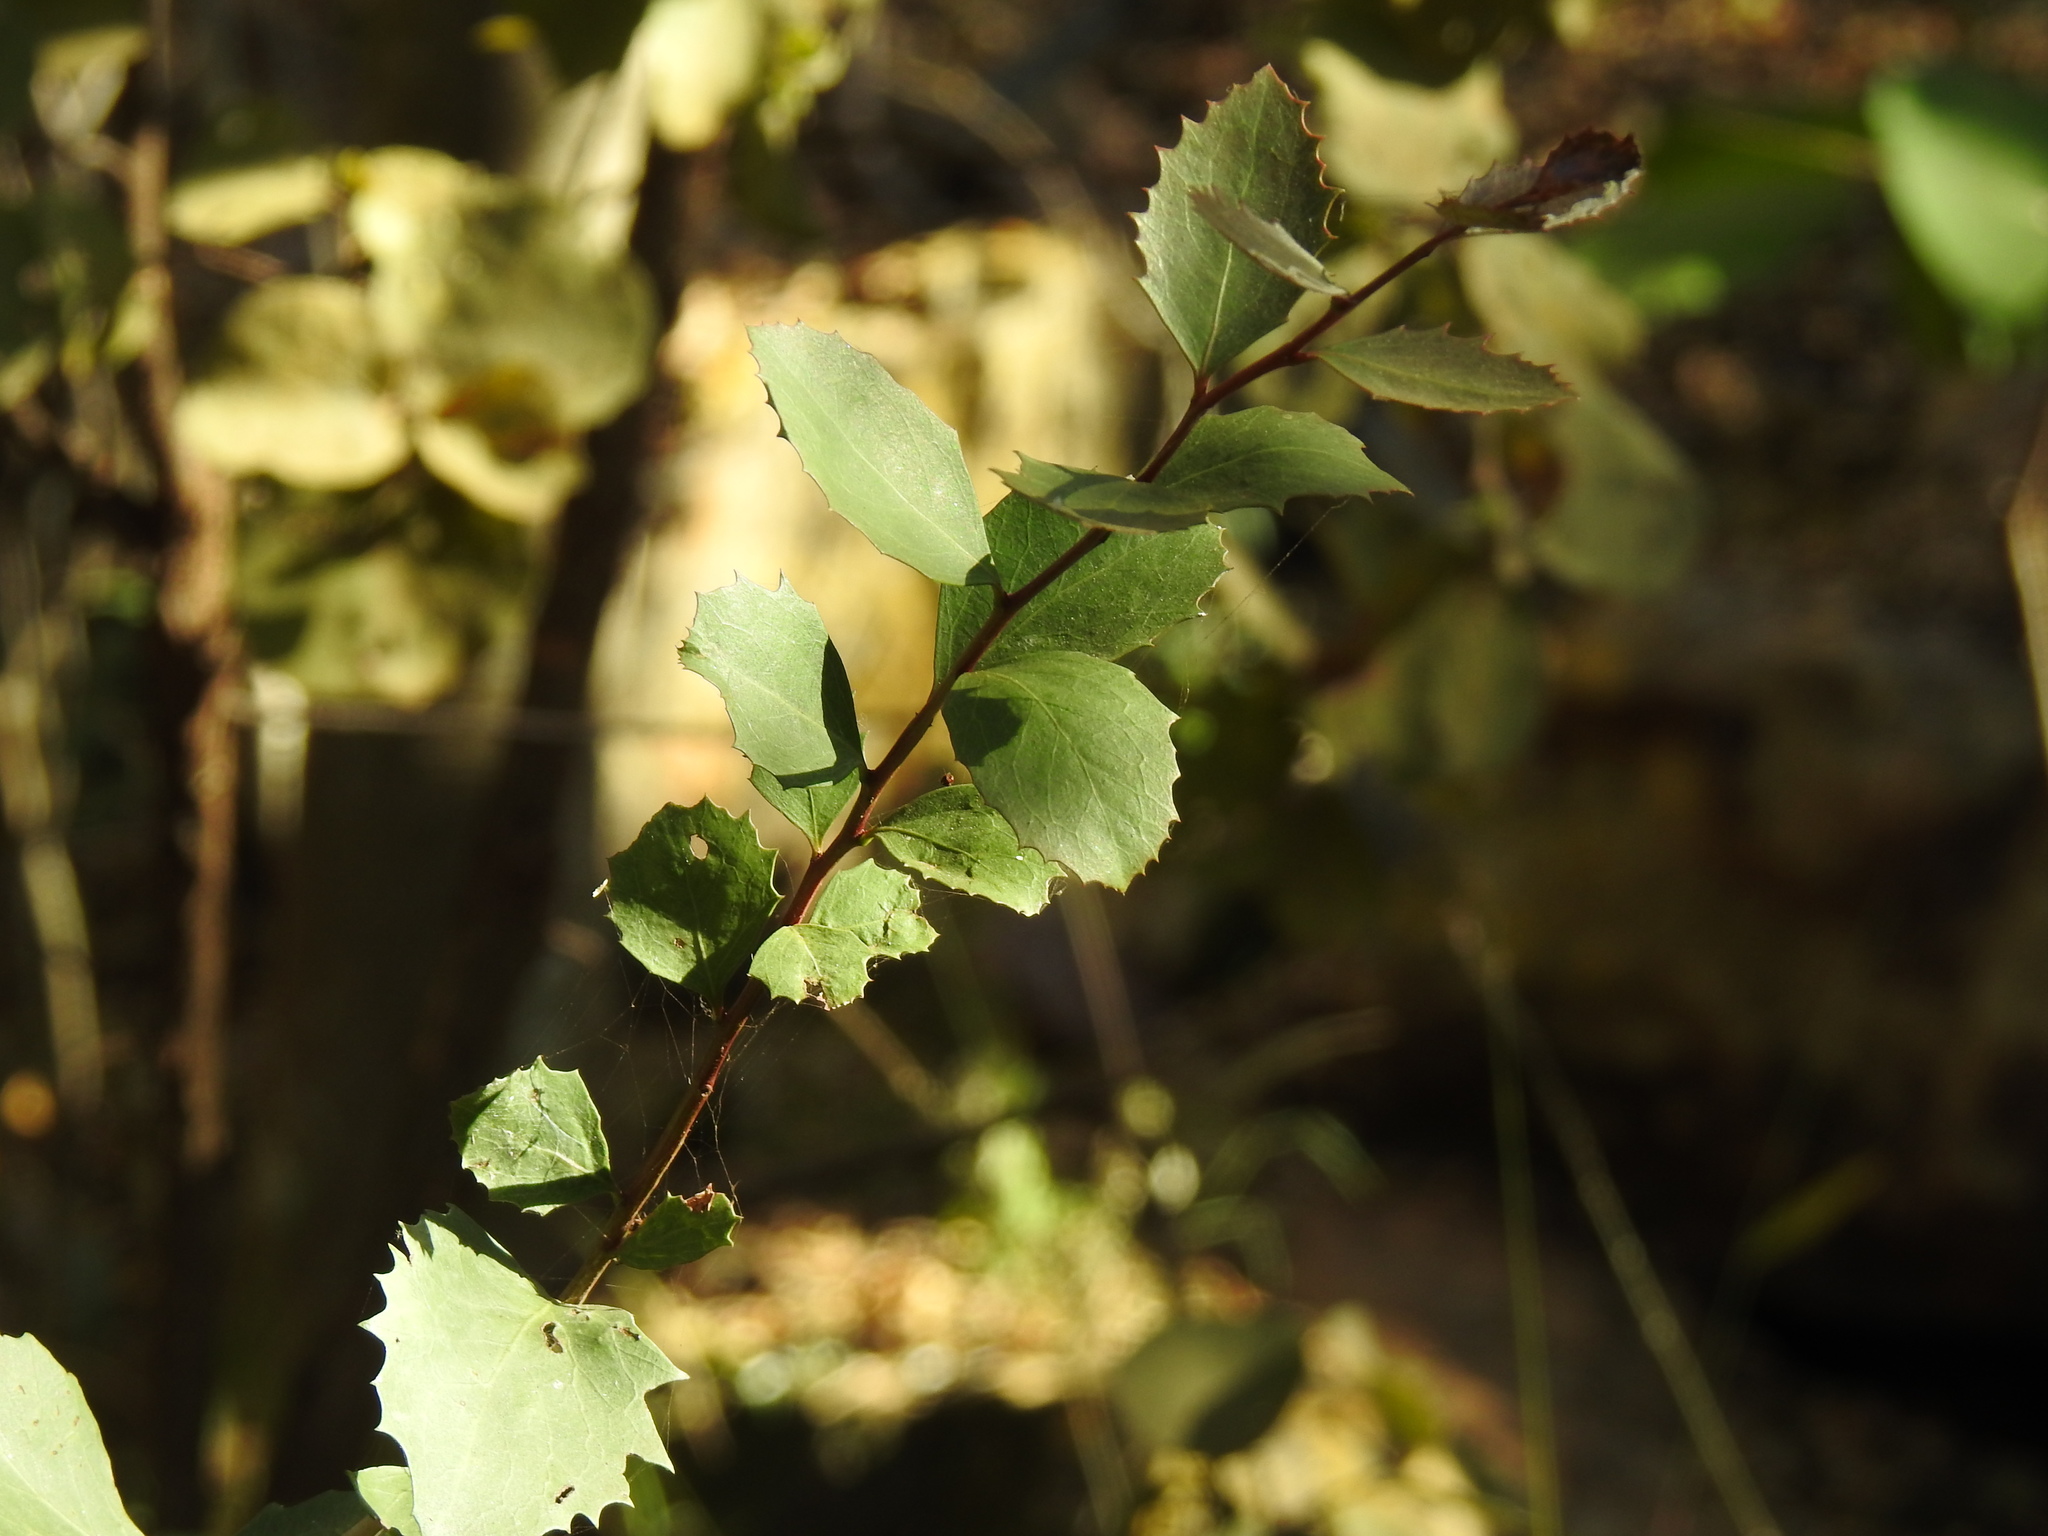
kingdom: Plantae
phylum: Tracheophyta
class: Magnoliopsida
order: Celastrales
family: Celastraceae
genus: Gymnosporia
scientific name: Gymnosporia undata
